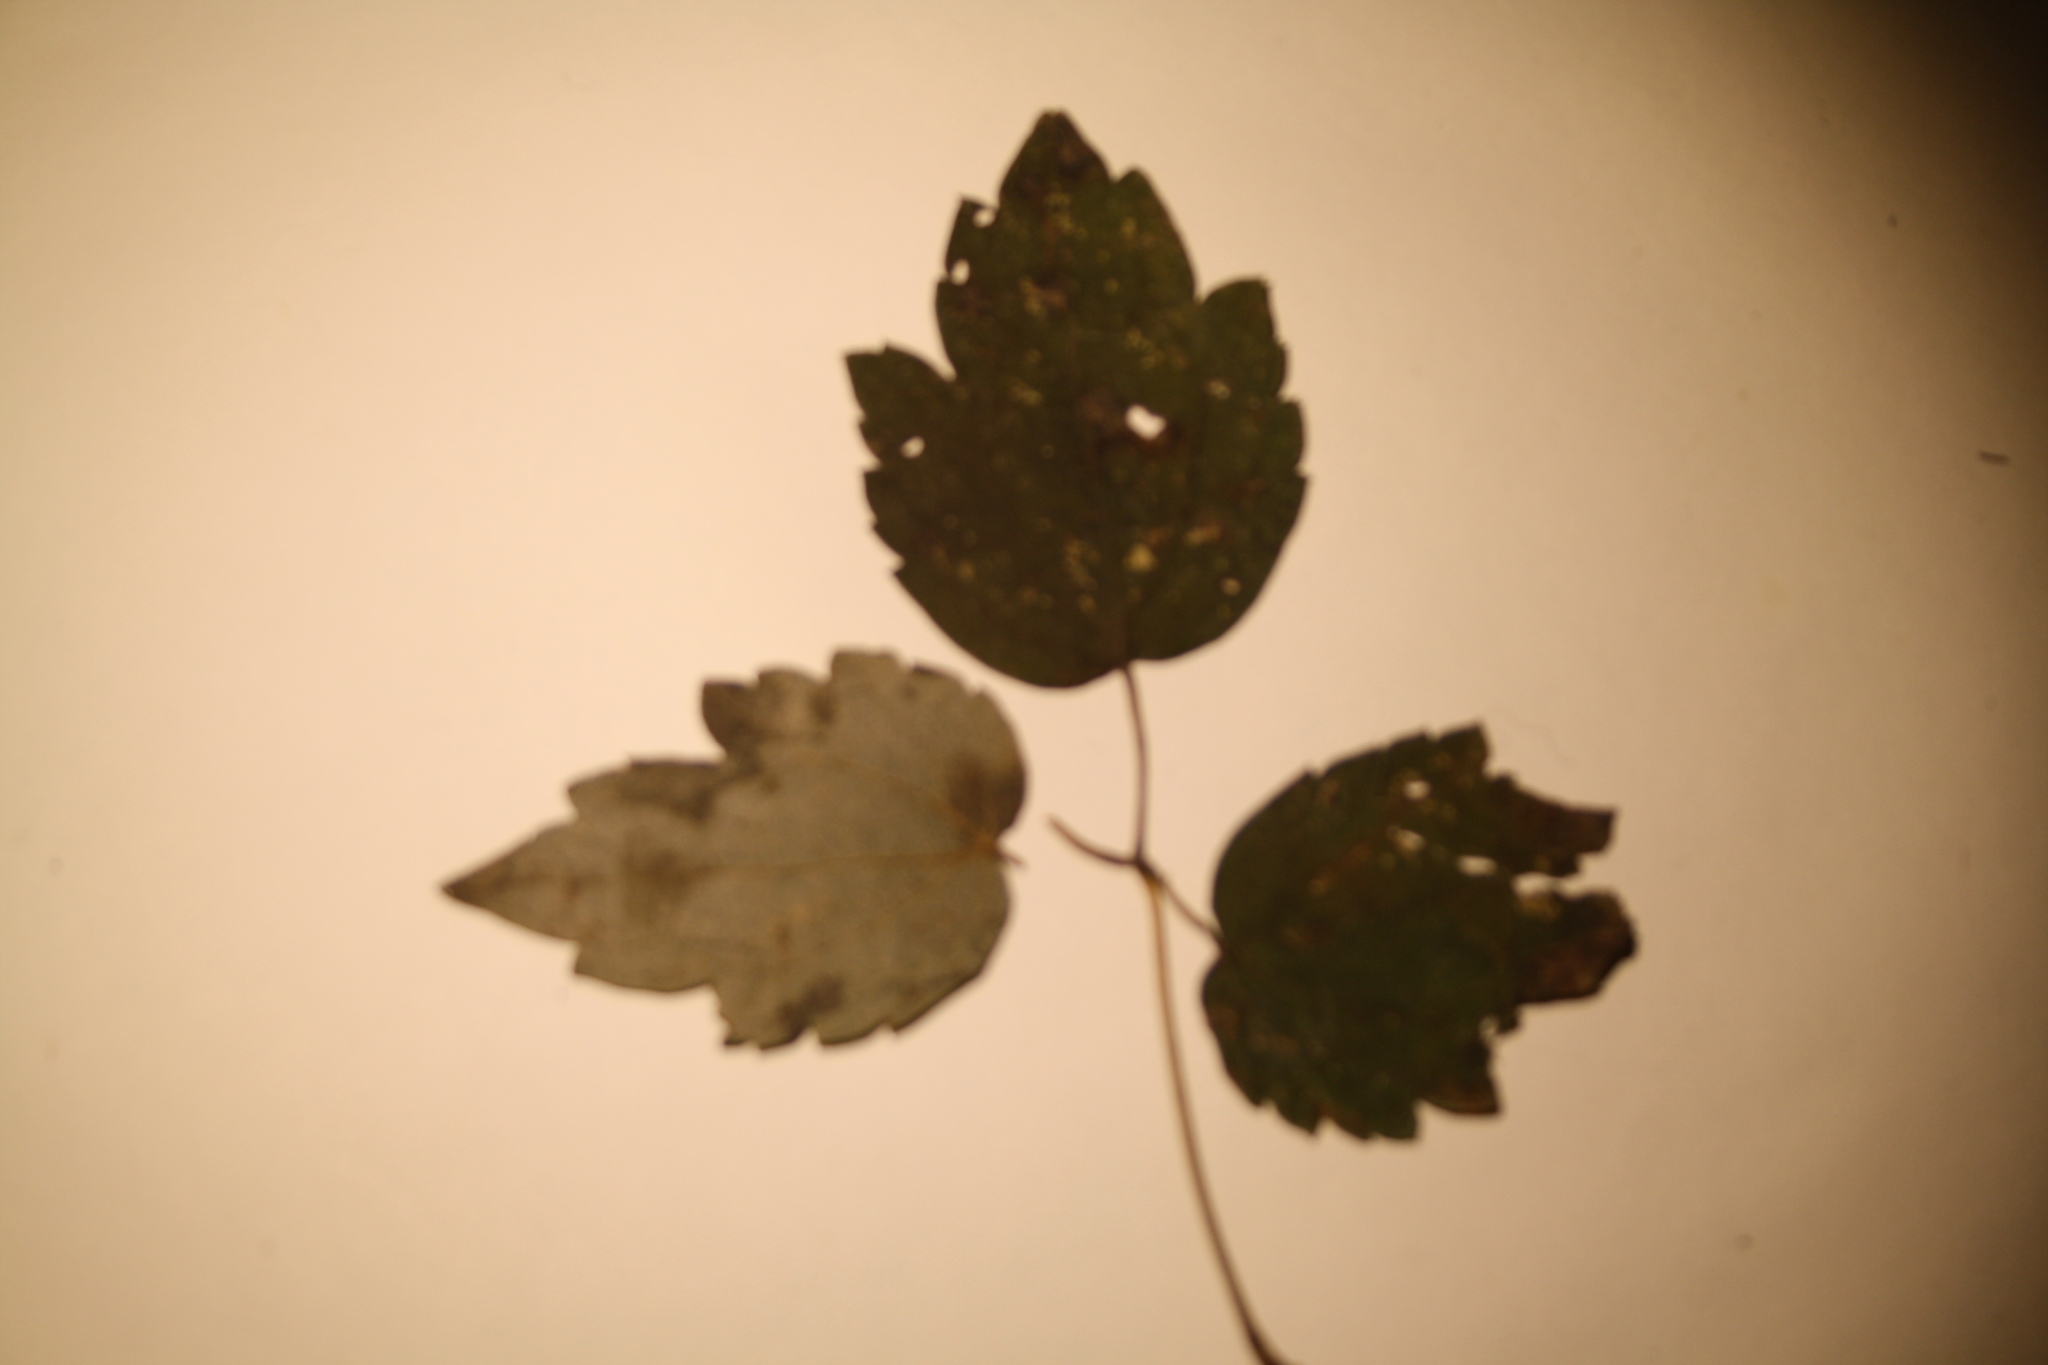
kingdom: Plantae
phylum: Tracheophyta
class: Magnoliopsida
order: Ranunculales
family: Ranunculaceae
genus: Clematis
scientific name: Clematis virginiana
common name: Virgin's-bower
